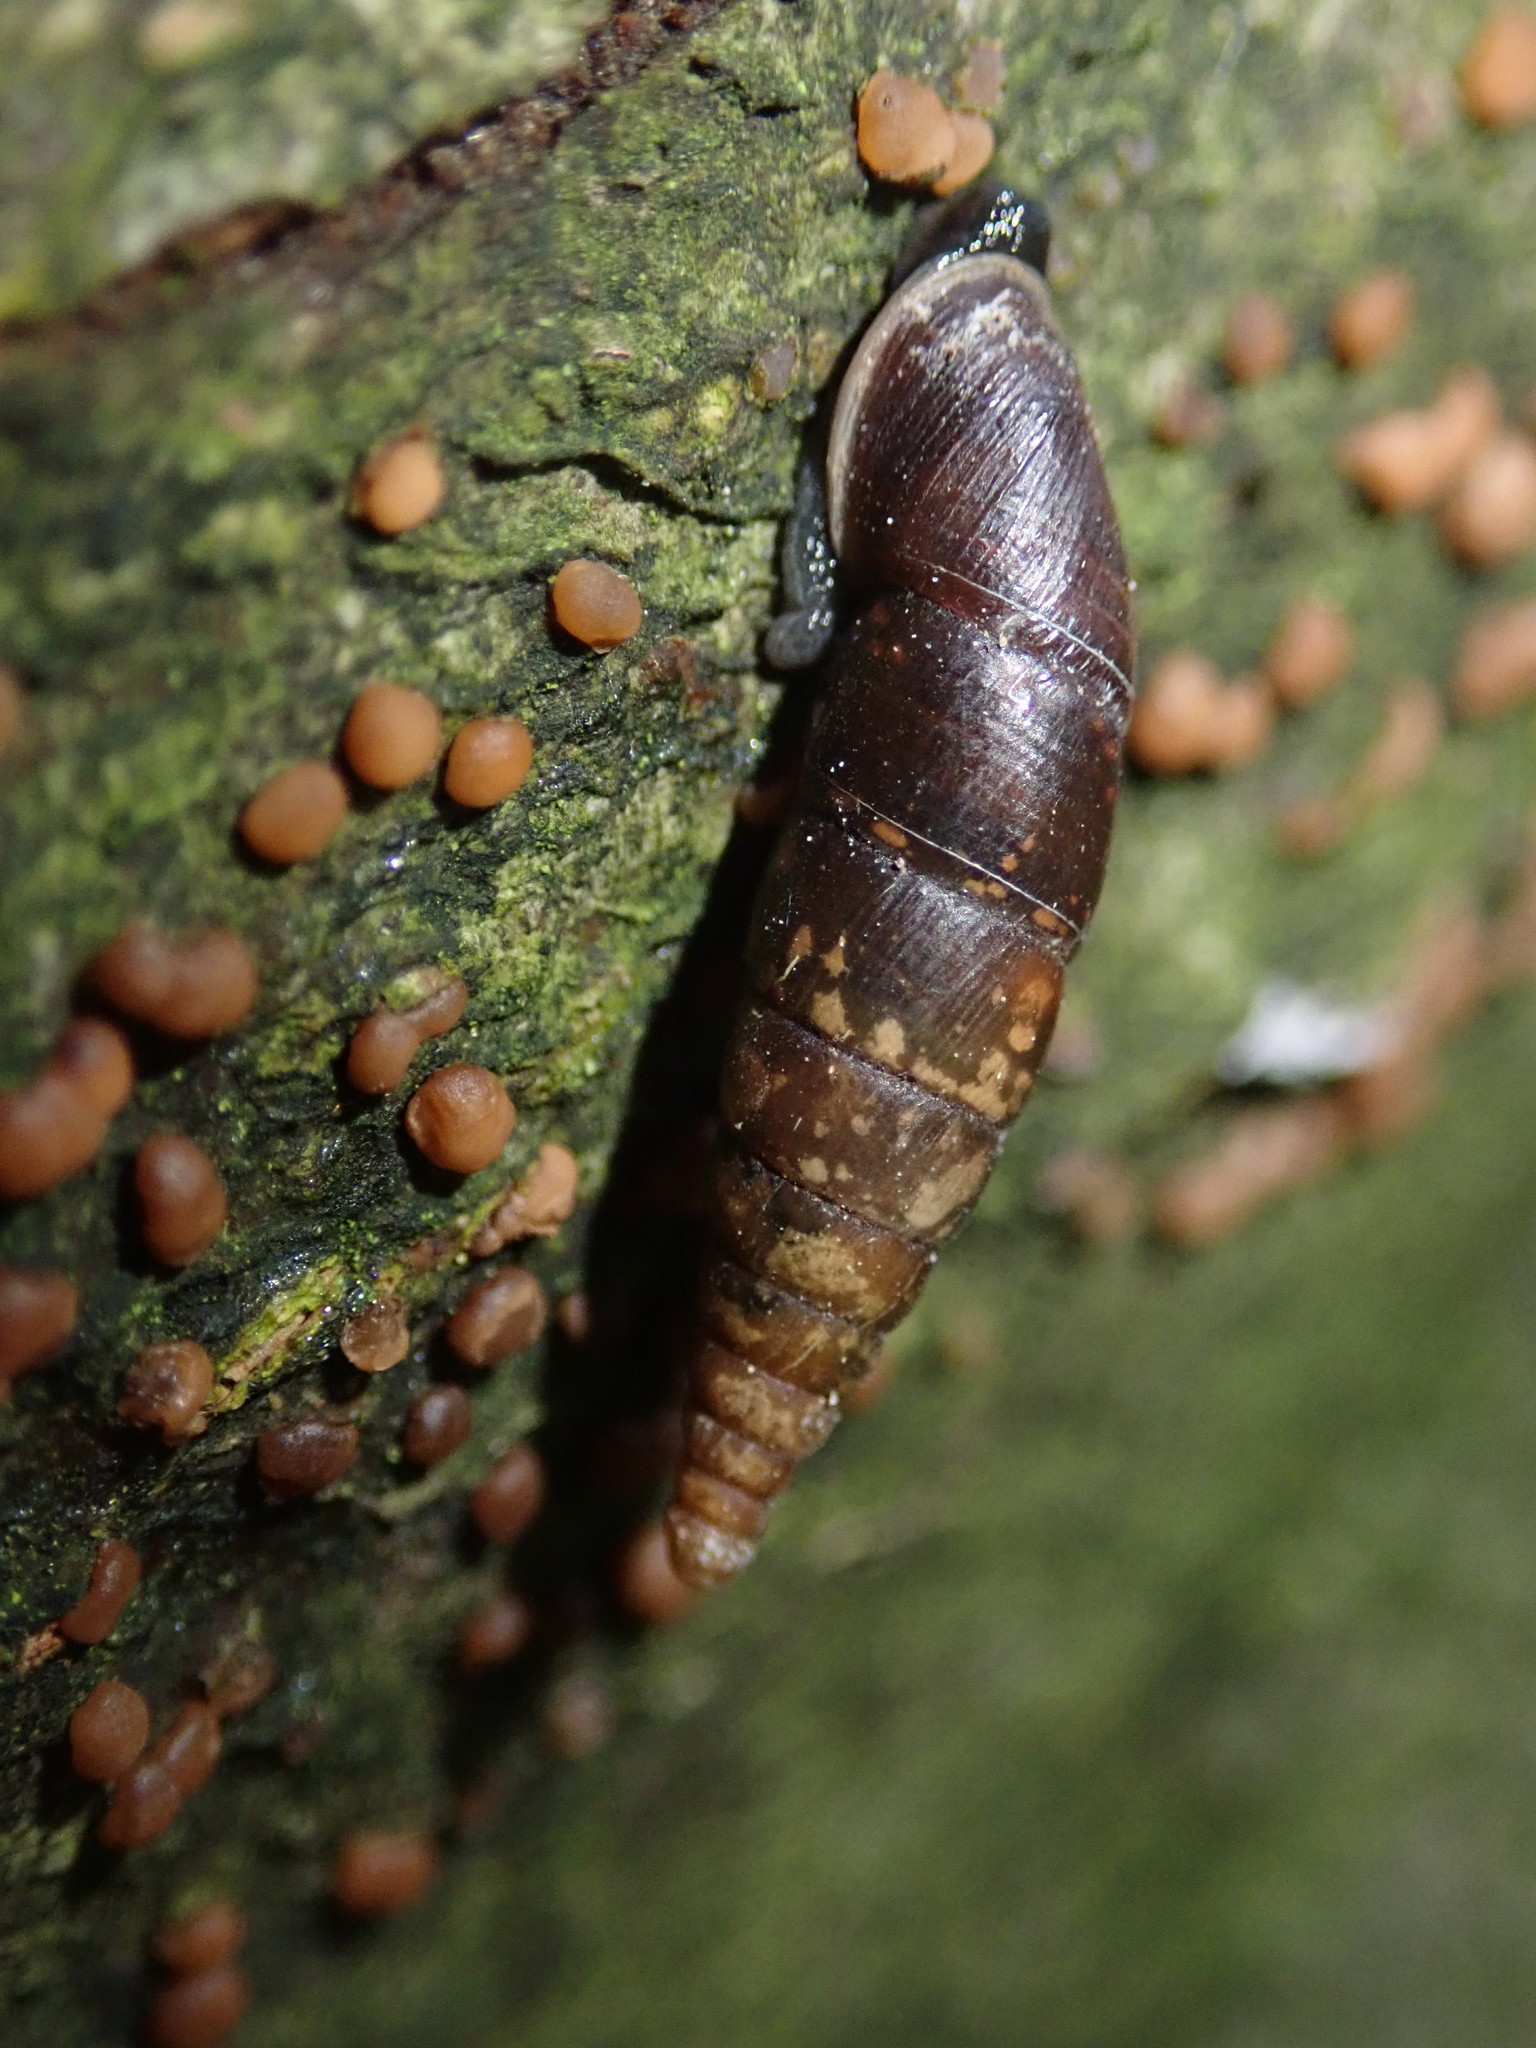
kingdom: Animalia
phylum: Mollusca
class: Gastropoda
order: Stylommatophora
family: Clausiliidae
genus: Cochlodina
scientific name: Cochlodina laminata
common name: Plaited door snail
